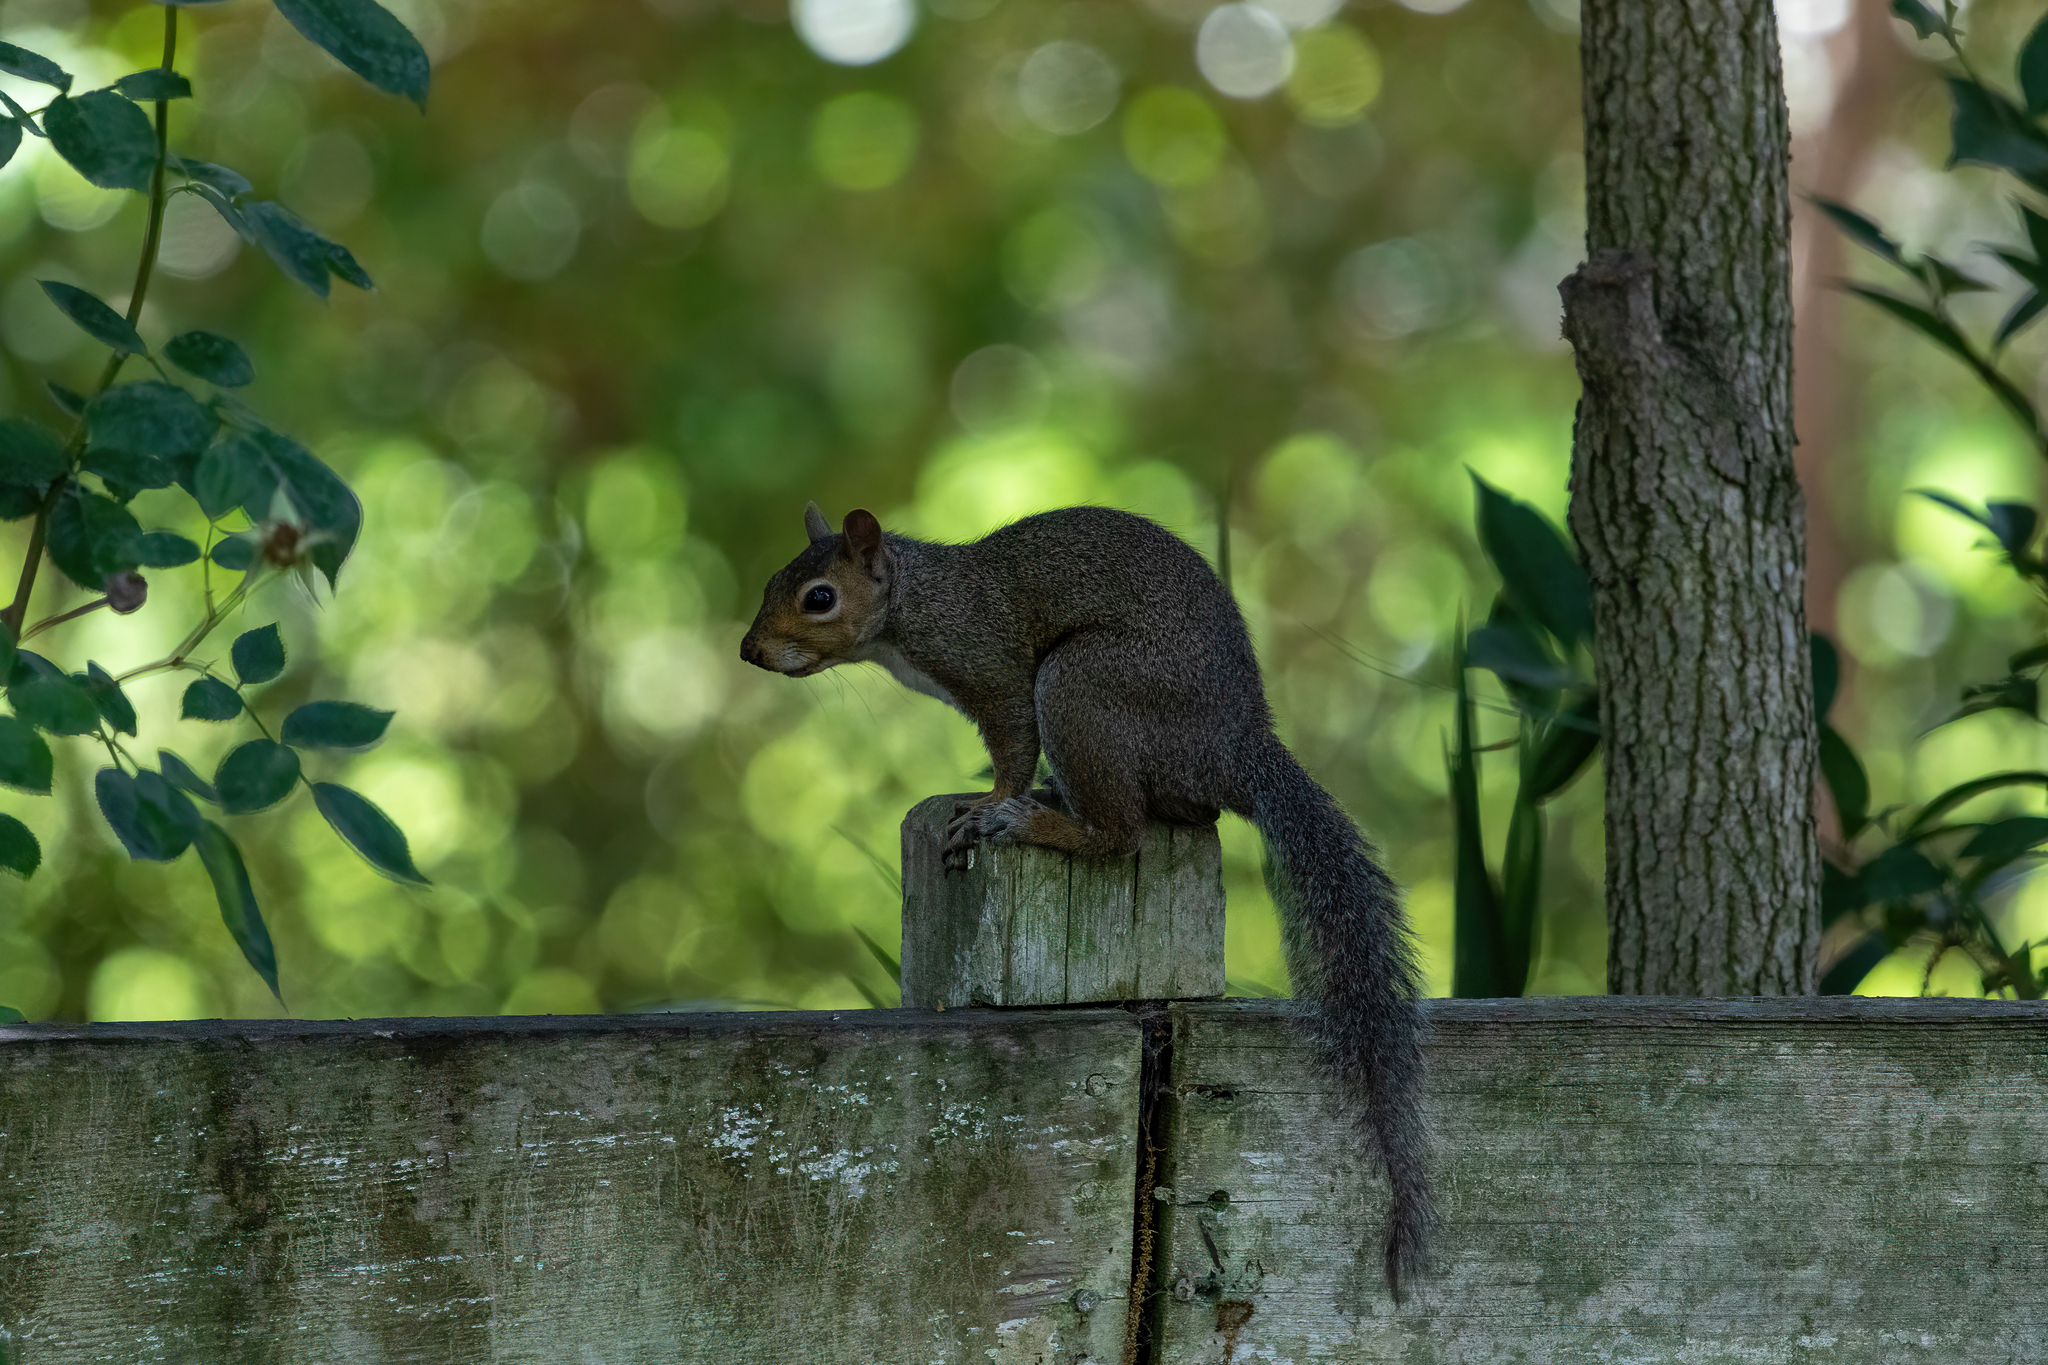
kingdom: Animalia
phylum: Chordata
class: Mammalia
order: Rodentia
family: Sciuridae
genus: Sciurus
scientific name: Sciurus carolinensis
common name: Eastern gray squirrel
